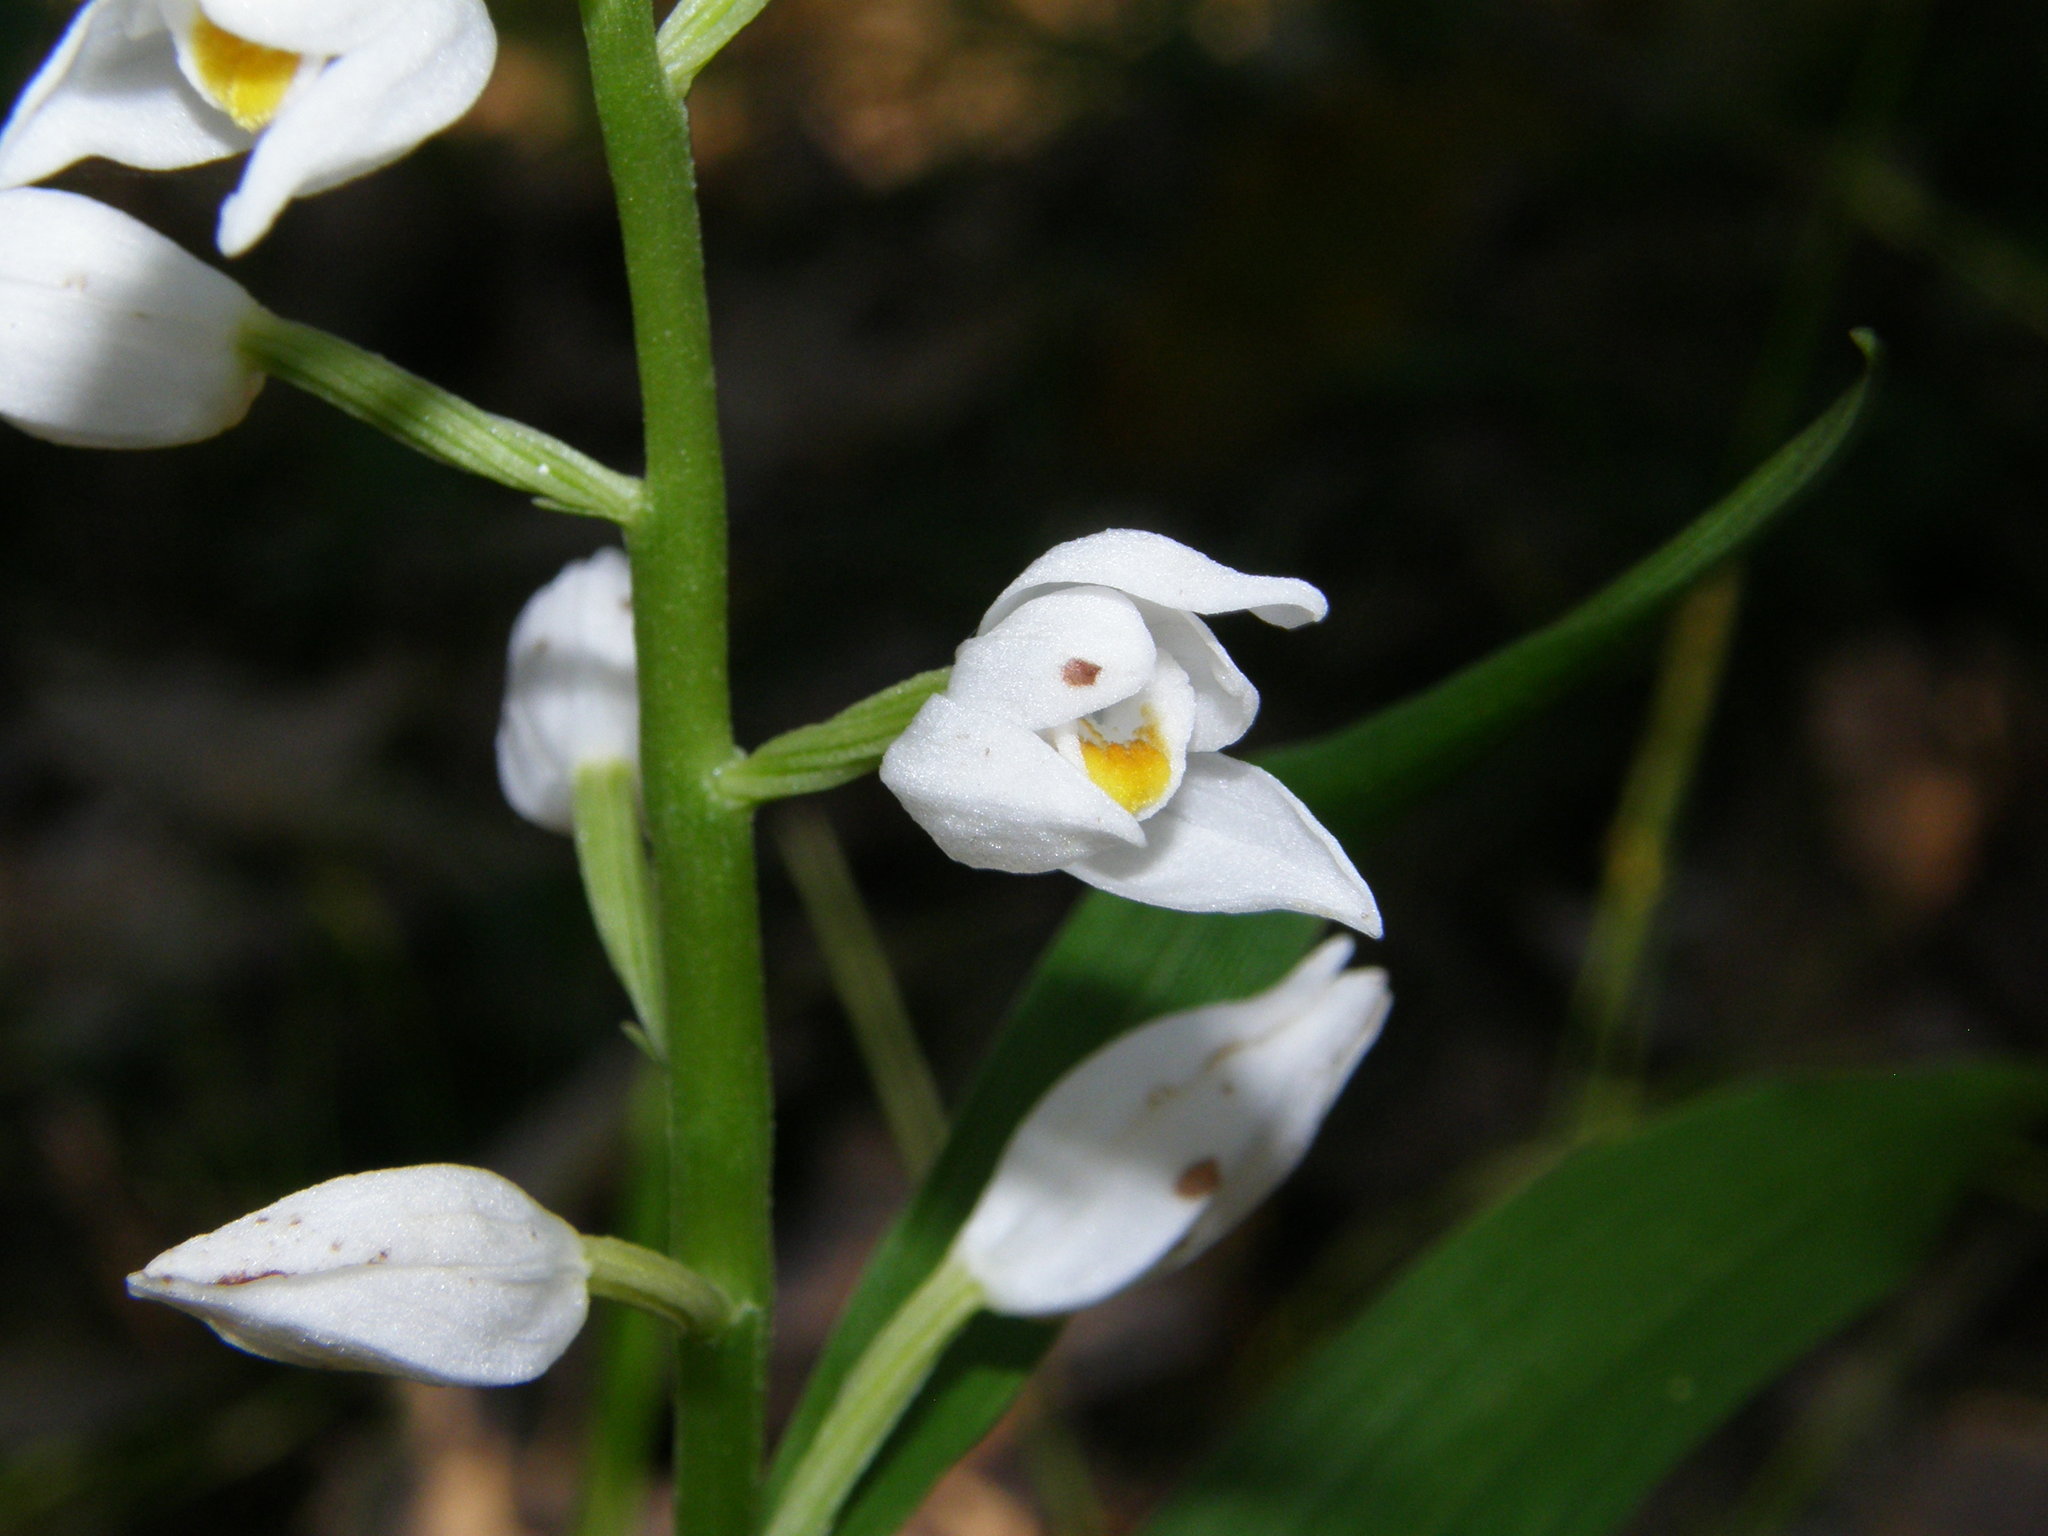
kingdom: Plantae
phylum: Tracheophyta
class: Liliopsida
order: Asparagales
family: Orchidaceae
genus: Cephalanthera
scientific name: Cephalanthera longifolia
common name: Narrow-leaved helleborine
